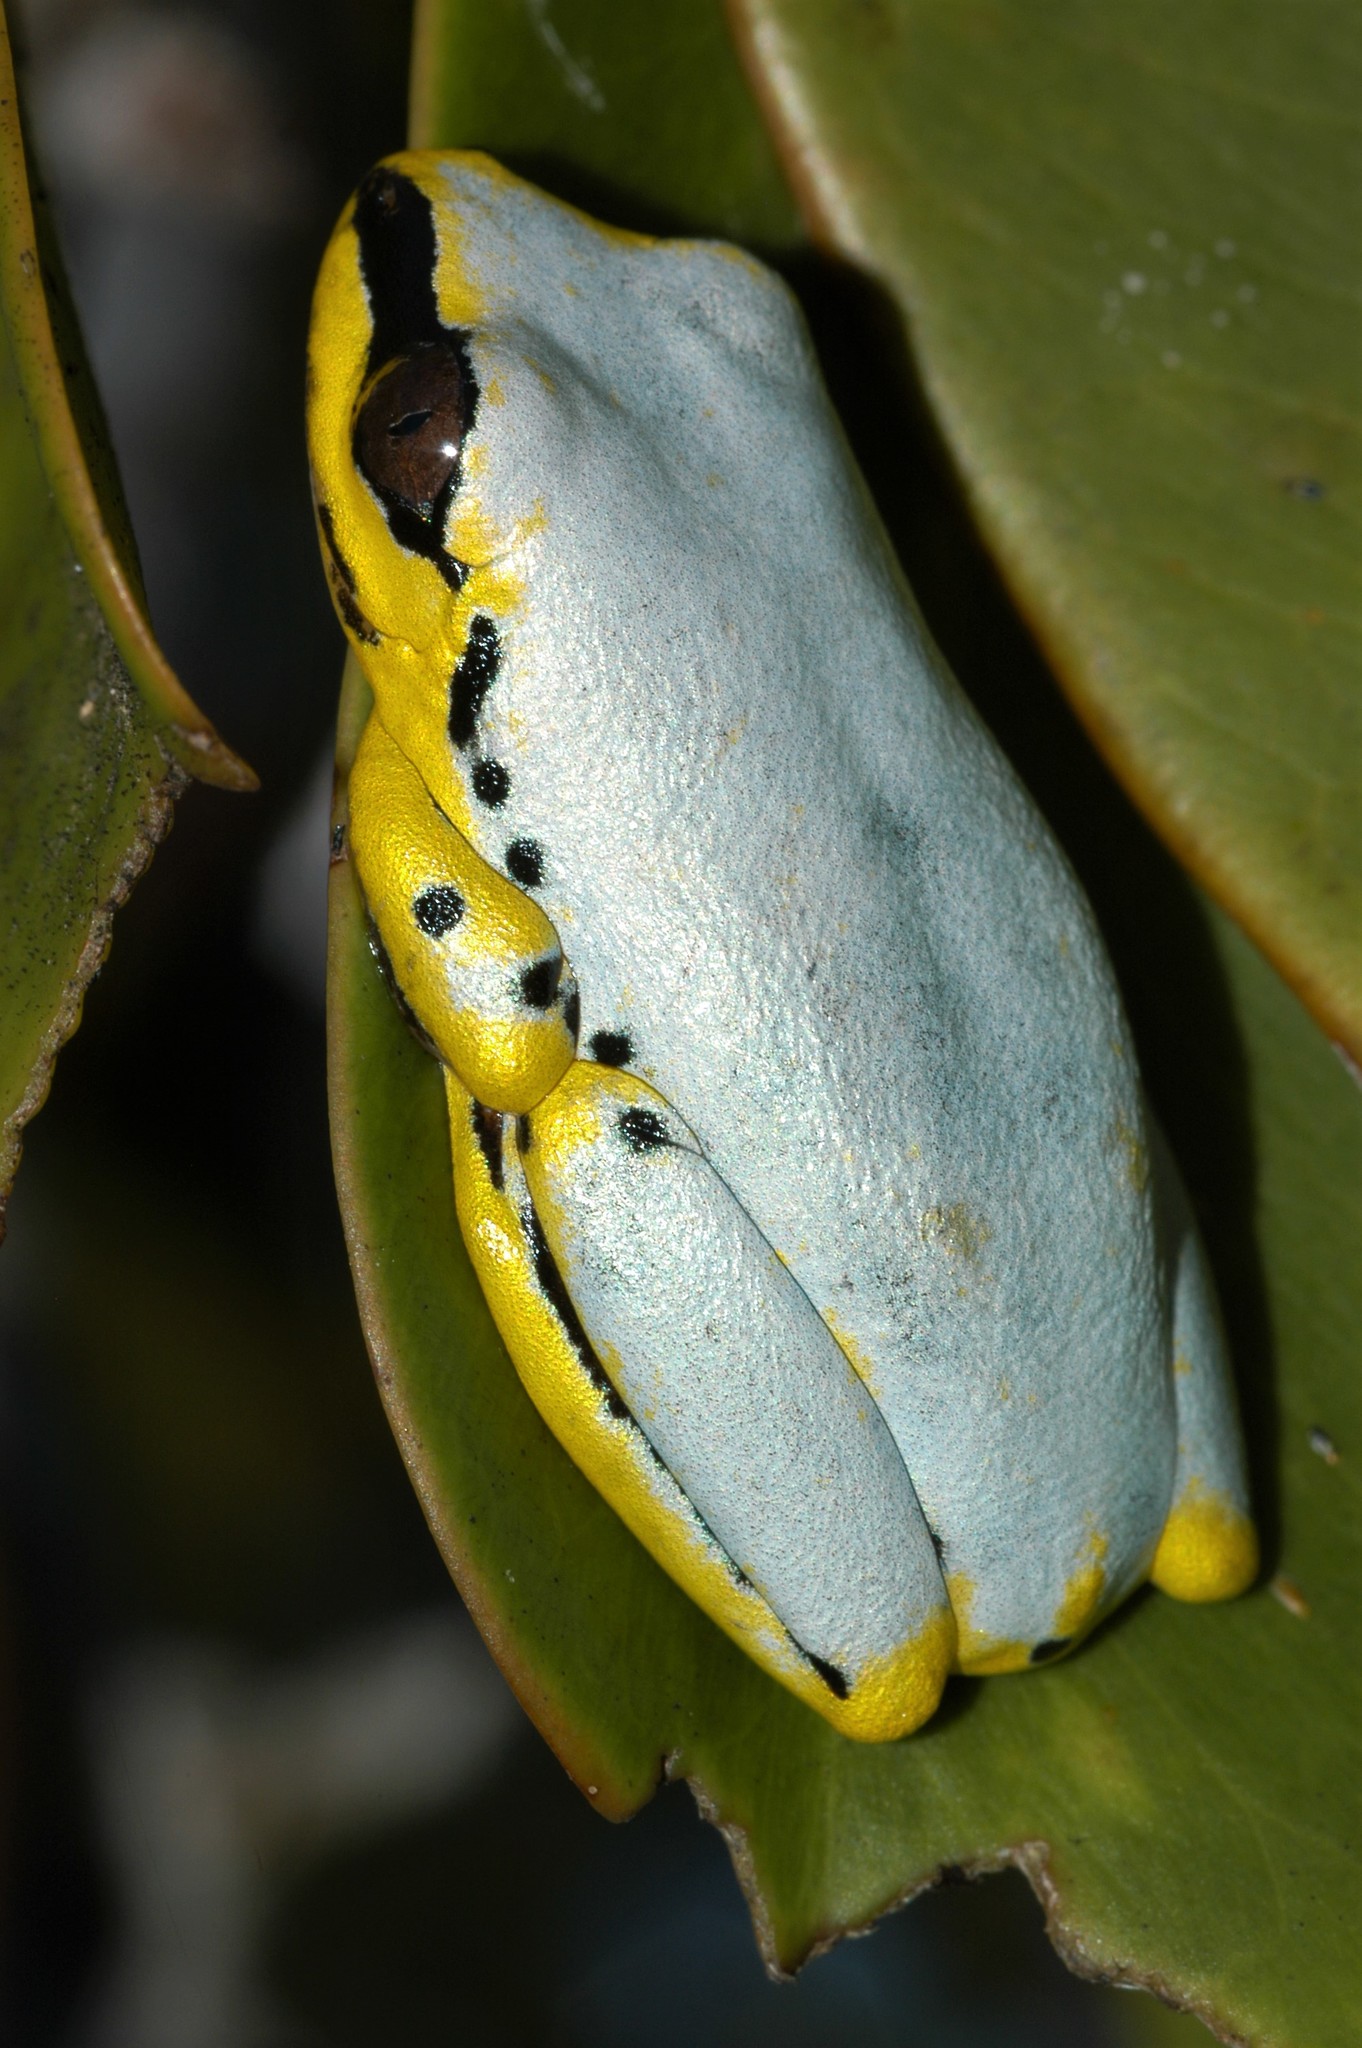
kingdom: Animalia
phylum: Chordata
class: Amphibia
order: Anura
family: Hyperoliidae
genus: Heterixalus
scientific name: Heterixalus madagascariensis
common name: Madagascar reed frog
